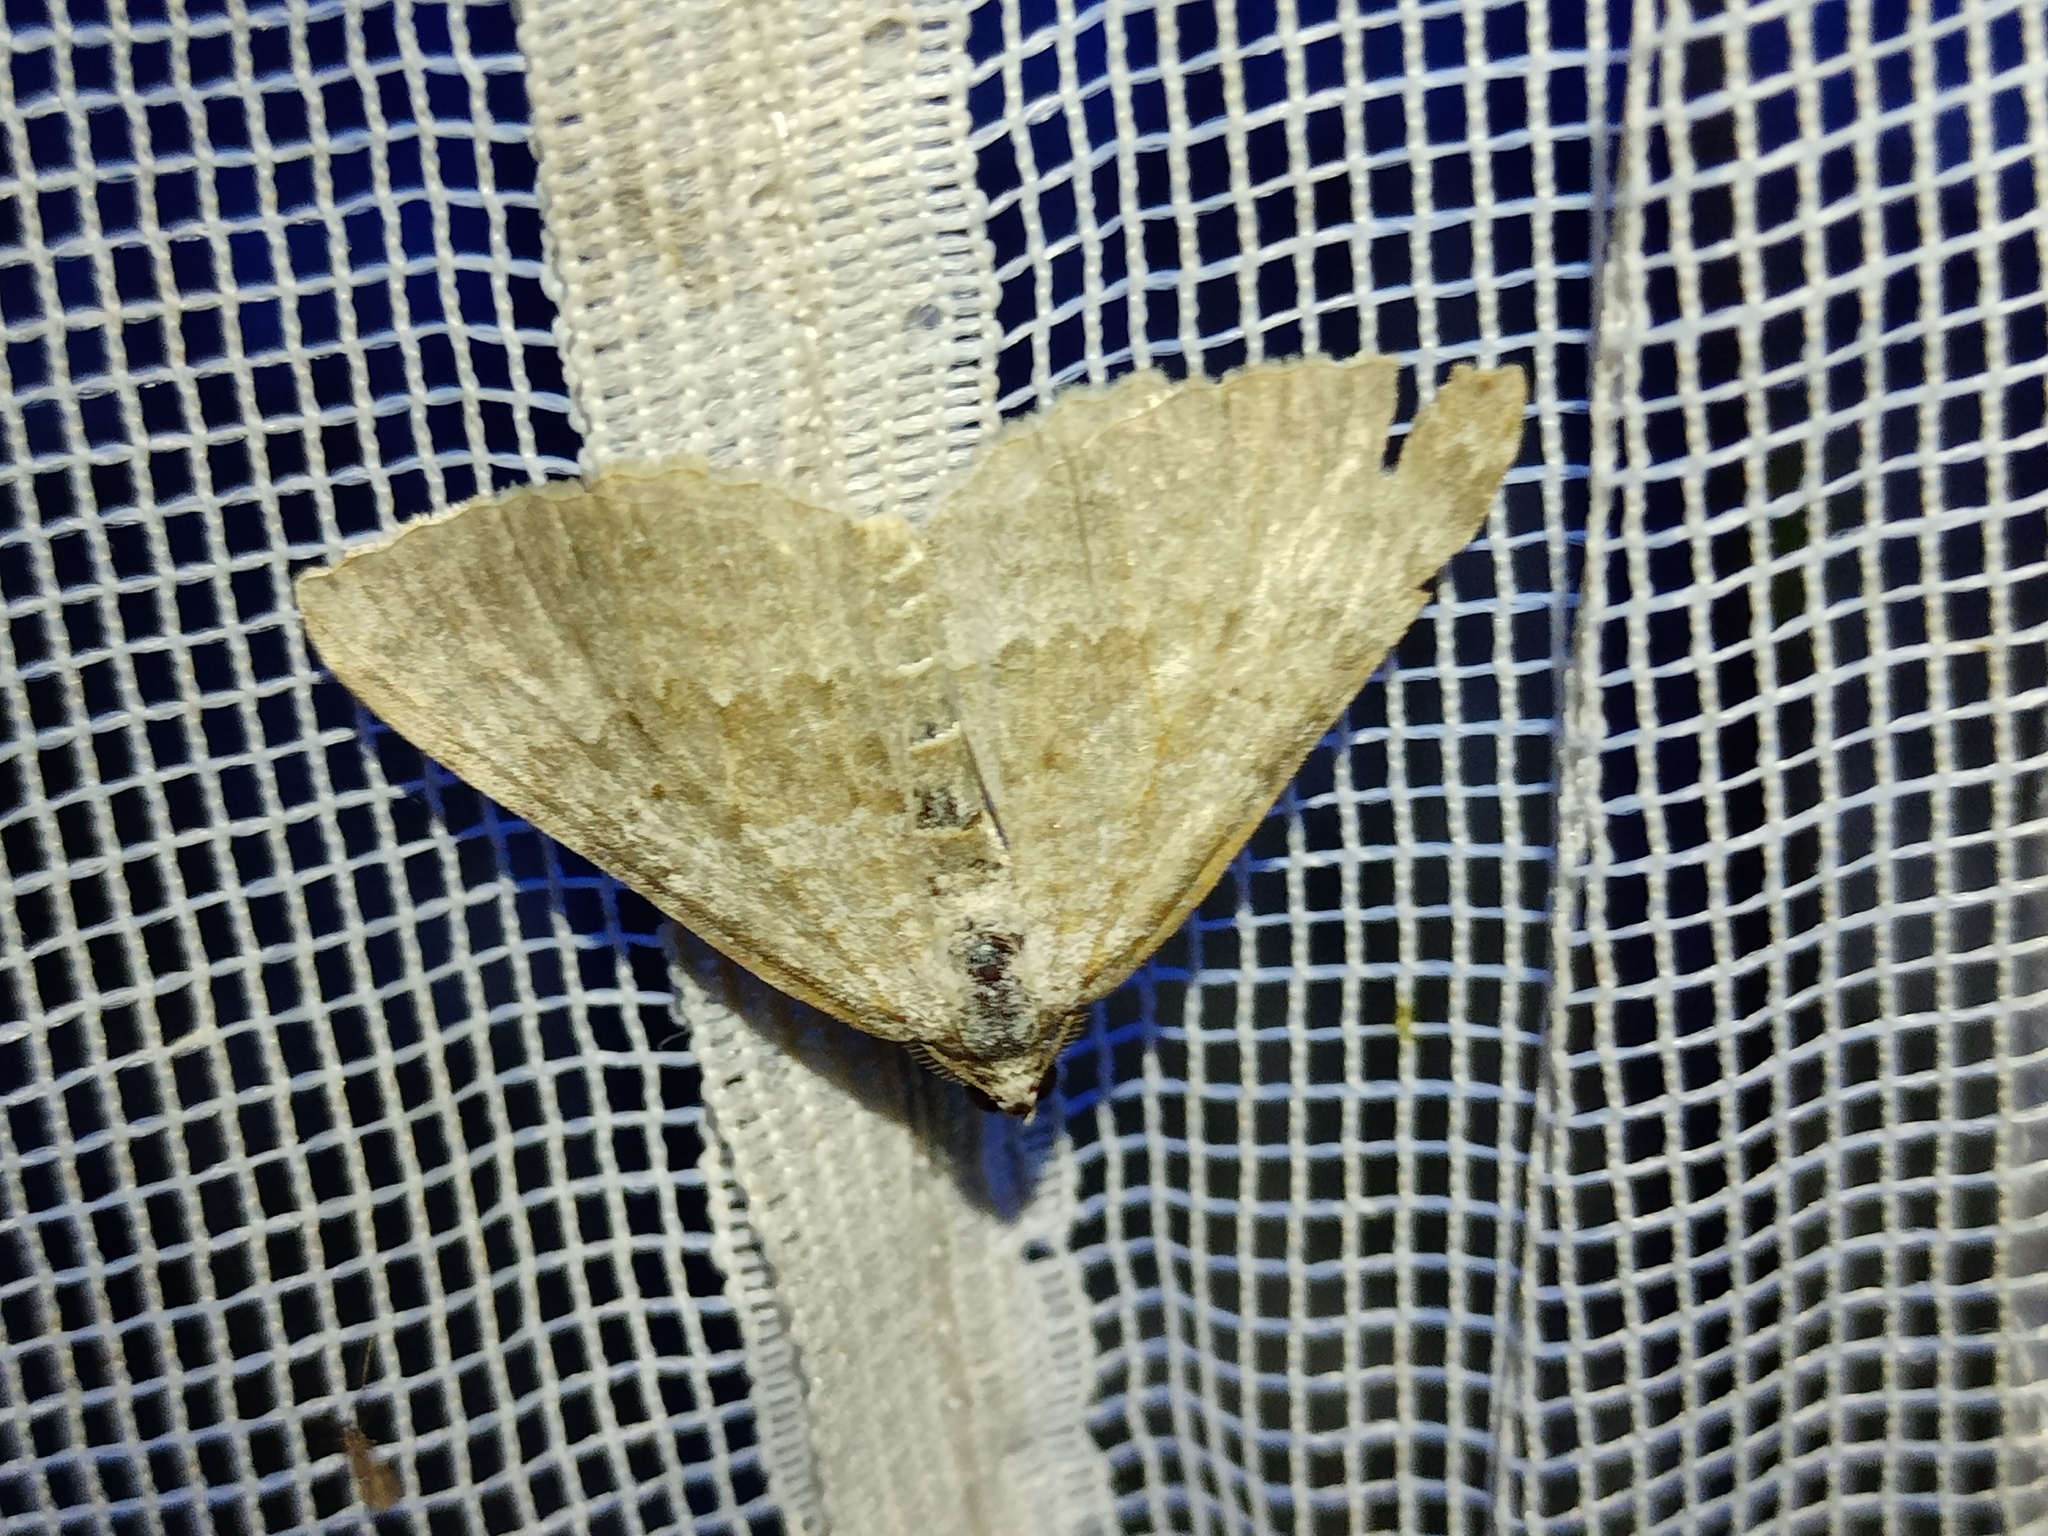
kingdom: Animalia
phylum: Arthropoda
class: Insecta
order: Lepidoptera
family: Geometridae
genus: Scotopteryx
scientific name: Scotopteryx bipunctaria
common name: Chalk carpet
